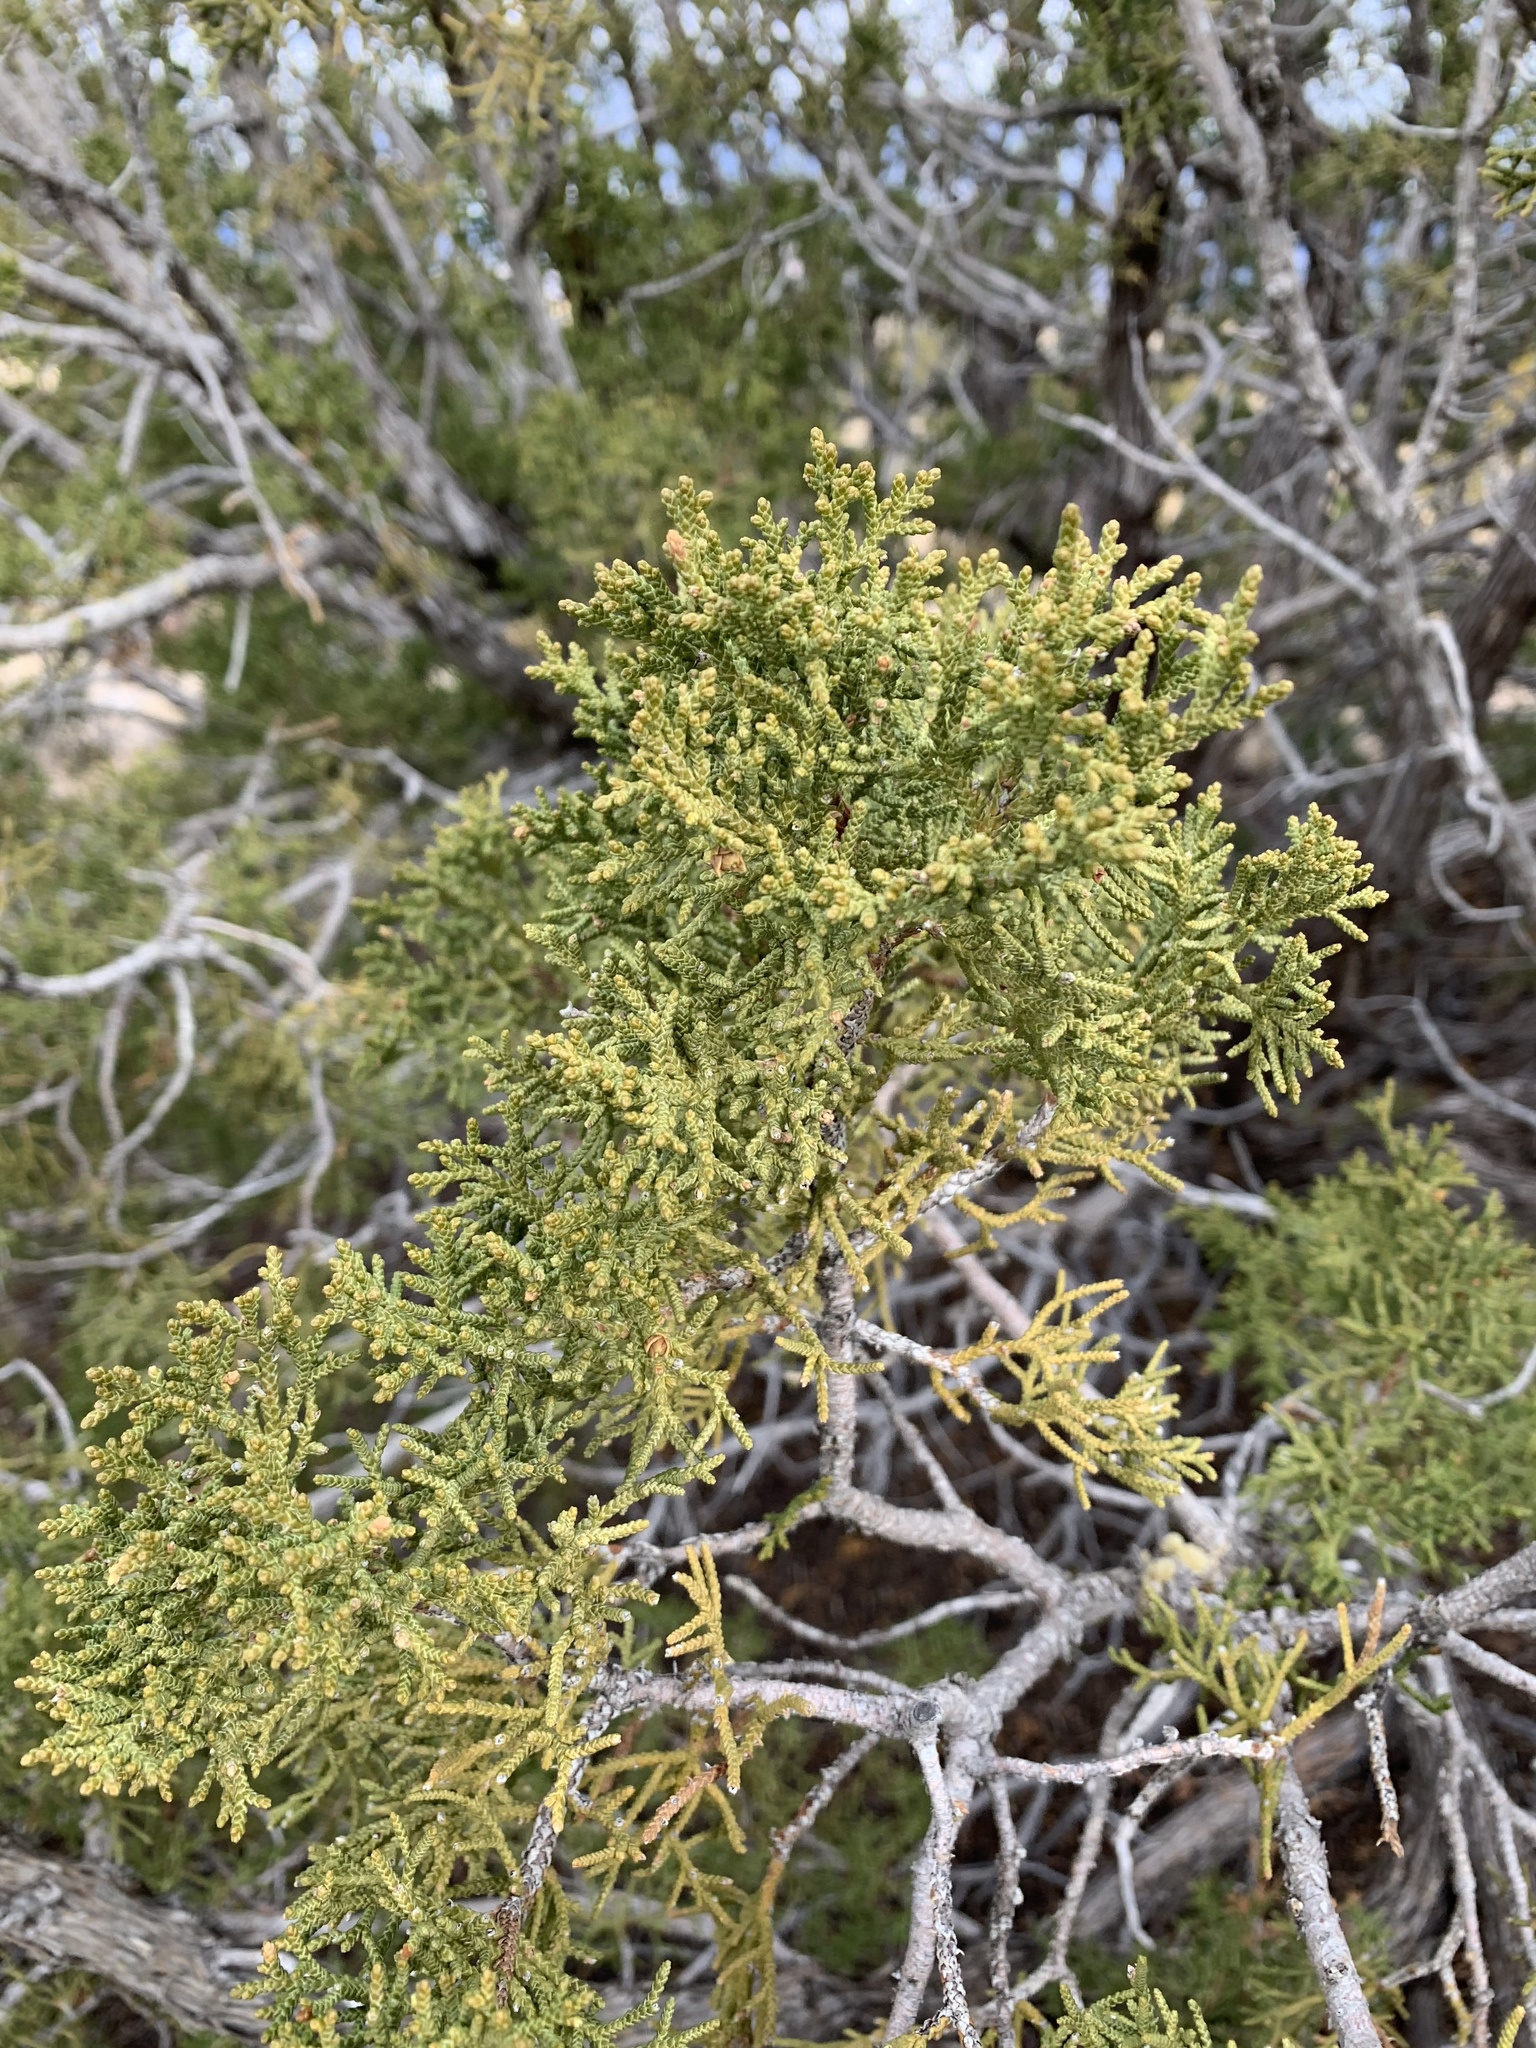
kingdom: Plantae
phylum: Tracheophyta
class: Pinopsida
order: Pinales
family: Cupressaceae
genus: Juniperus
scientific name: Juniperus monosperma
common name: One-seed juniper
